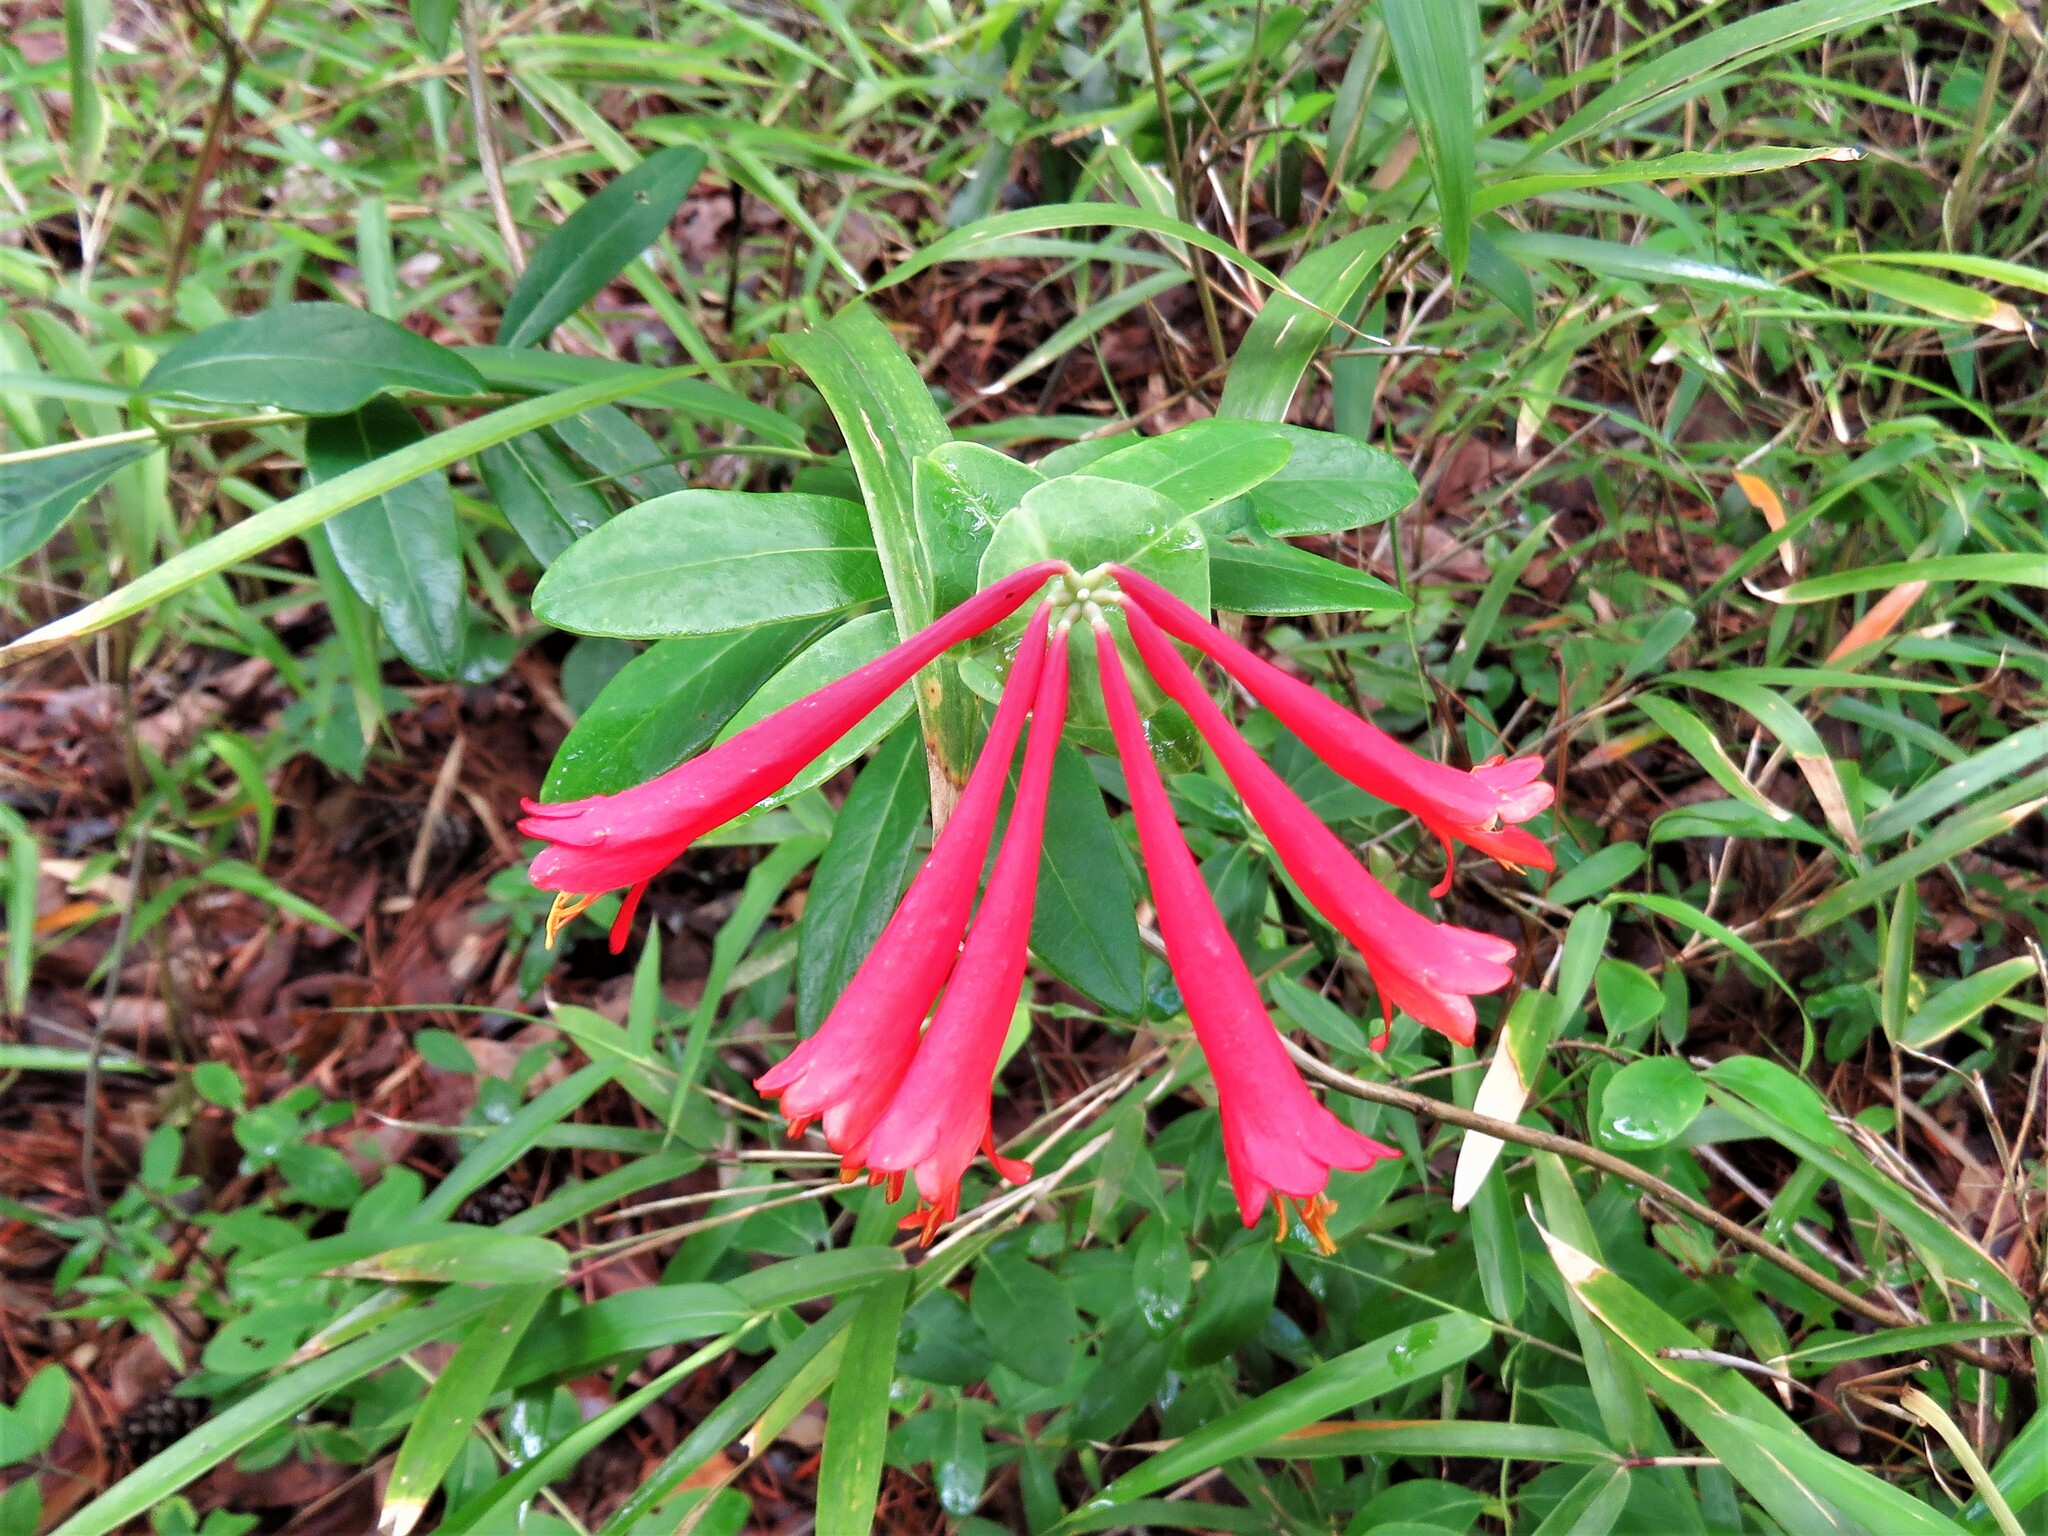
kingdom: Plantae
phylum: Tracheophyta
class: Magnoliopsida
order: Dipsacales
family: Caprifoliaceae
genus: Lonicera
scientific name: Lonicera sempervirens
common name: Coral honeysuckle
